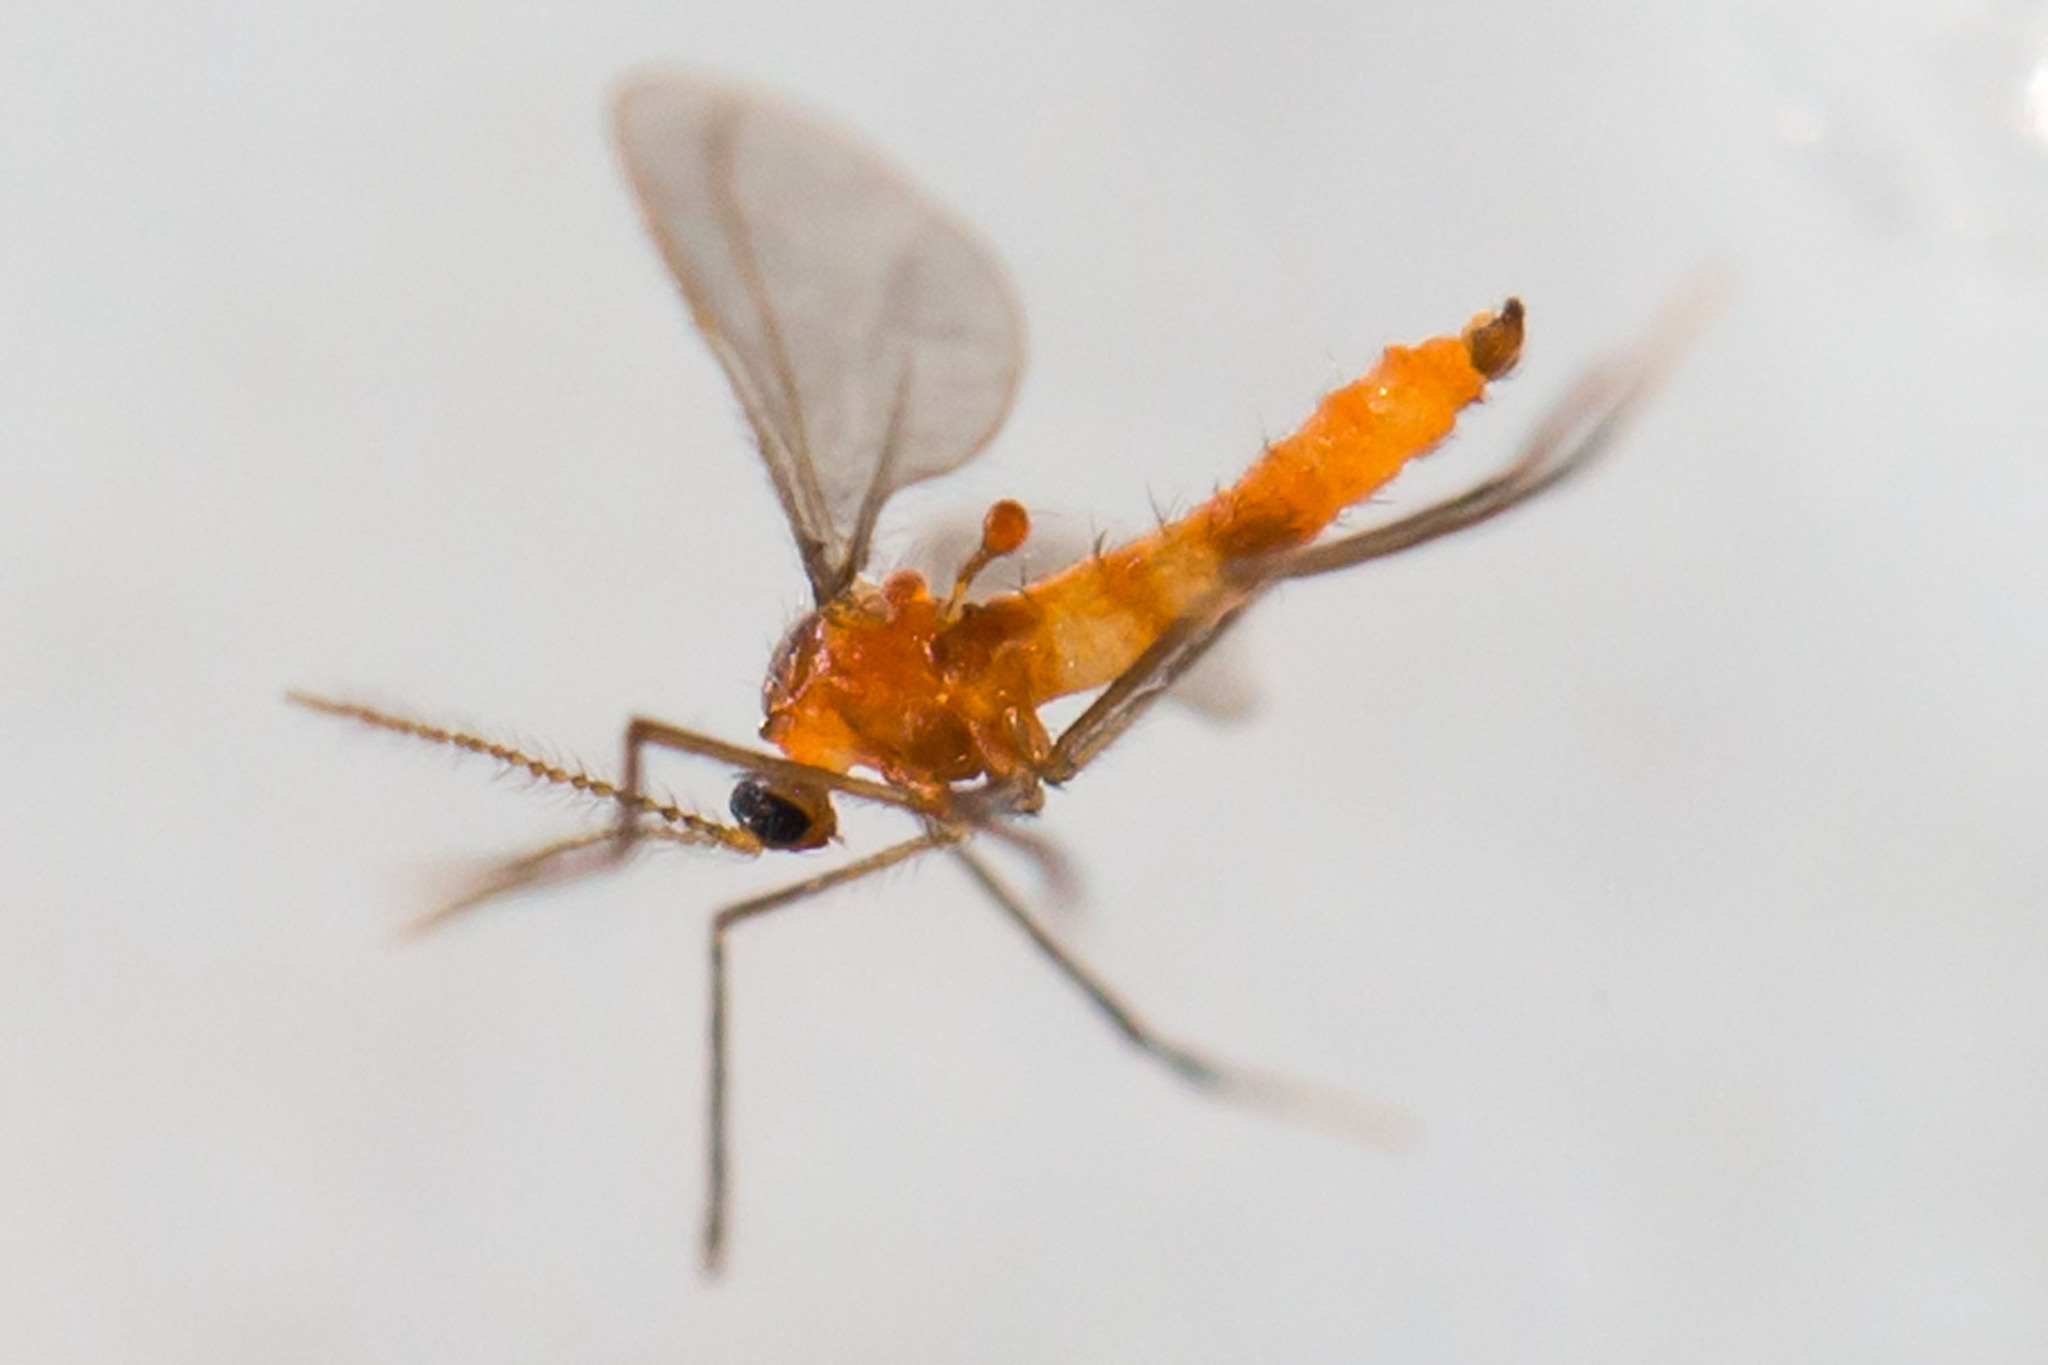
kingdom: Animalia
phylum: Arthropoda
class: Insecta
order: Diptera
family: Cecidomyiidae
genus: Monarthropalpus
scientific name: Monarthropalpus flavus
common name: Boxwood leafminer
